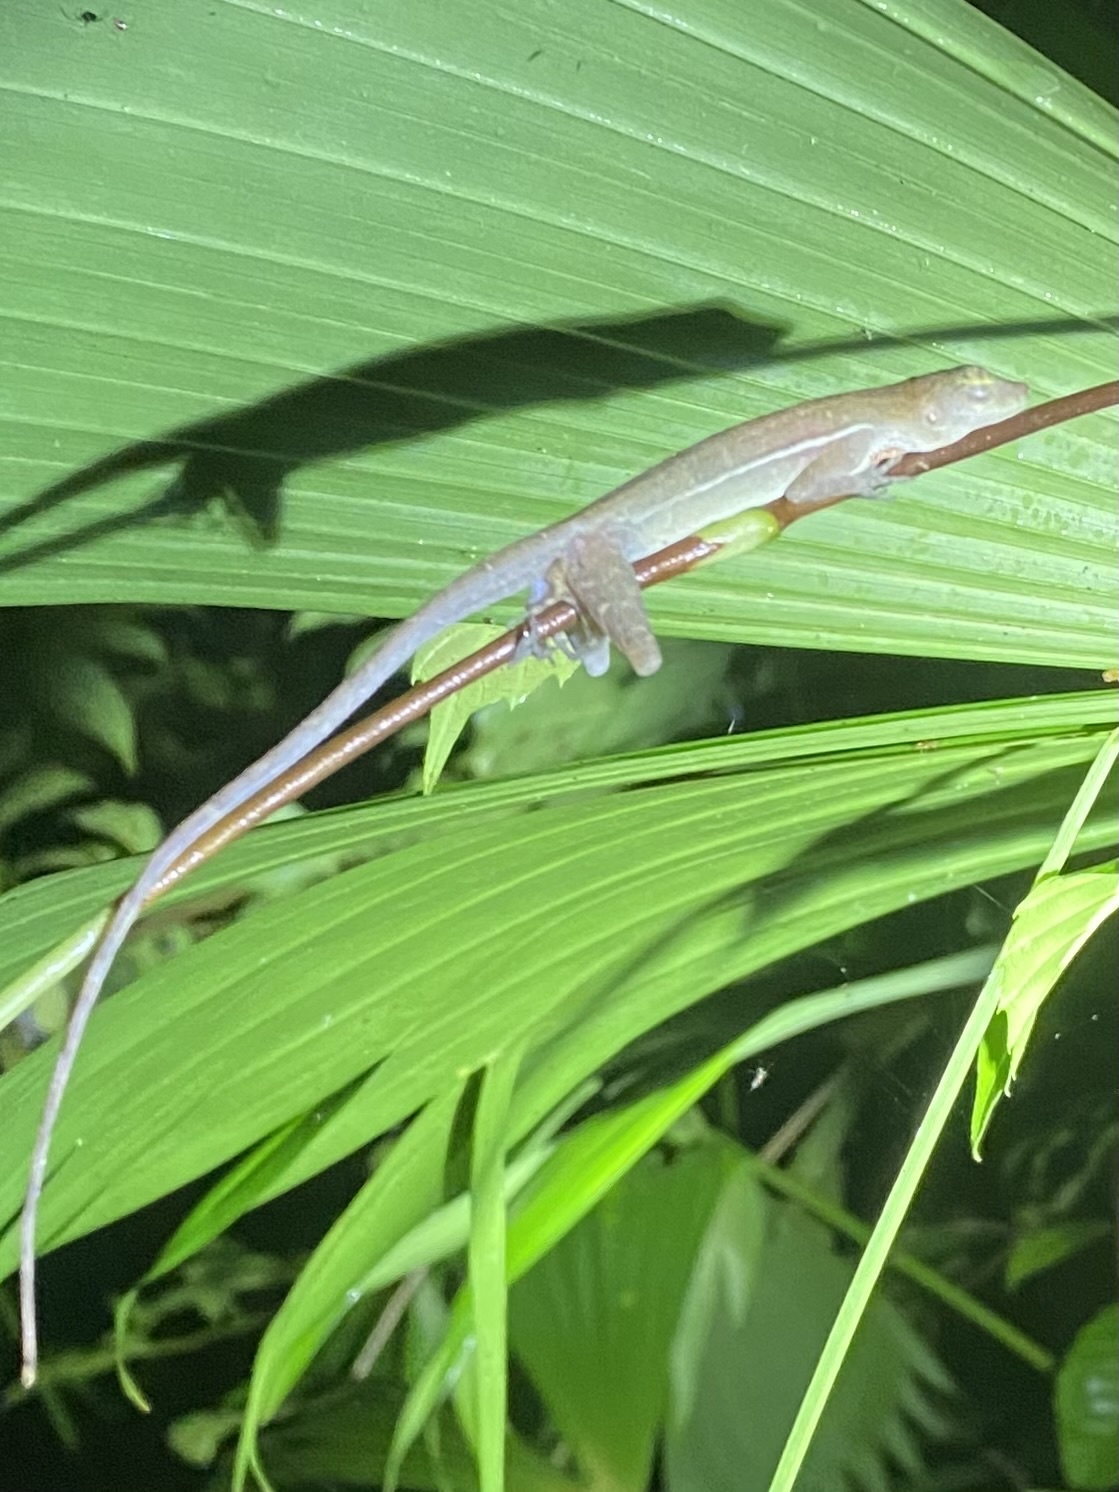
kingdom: Animalia
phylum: Chordata
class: Squamata
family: Dactyloidae
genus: Anolis
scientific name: Anolis polylepis
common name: Many-scaled anole
